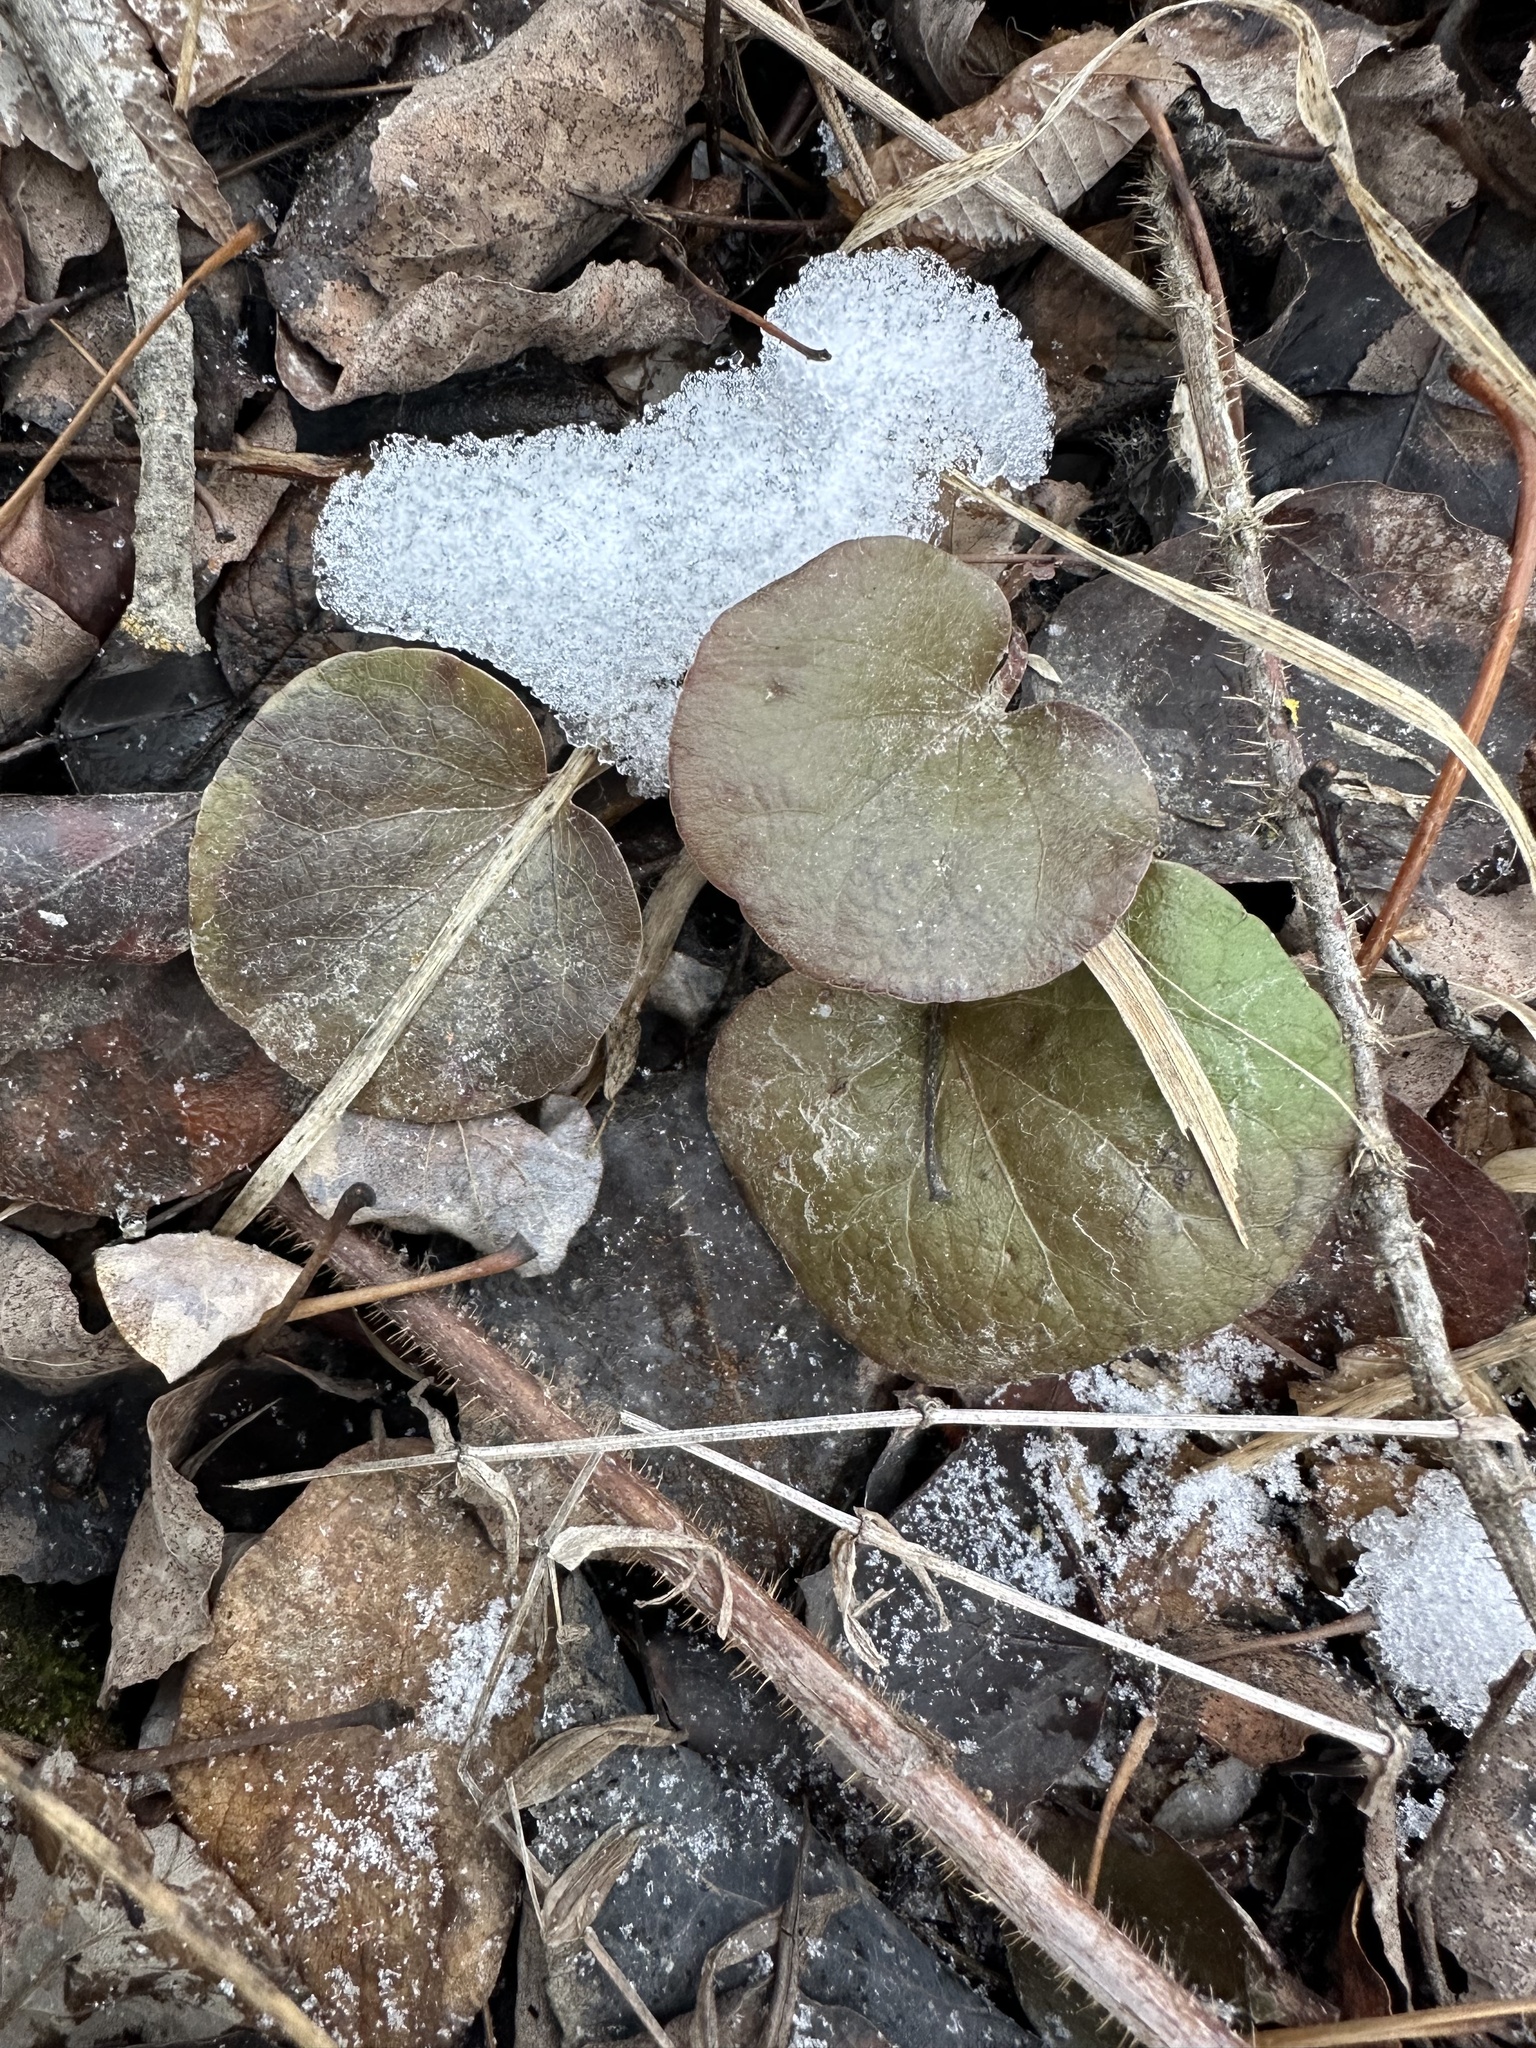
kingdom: Plantae
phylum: Tracheophyta
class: Magnoliopsida
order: Ericales
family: Ericaceae
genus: Pyrola
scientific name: Pyrola asarifolia
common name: Bog wintergreen
